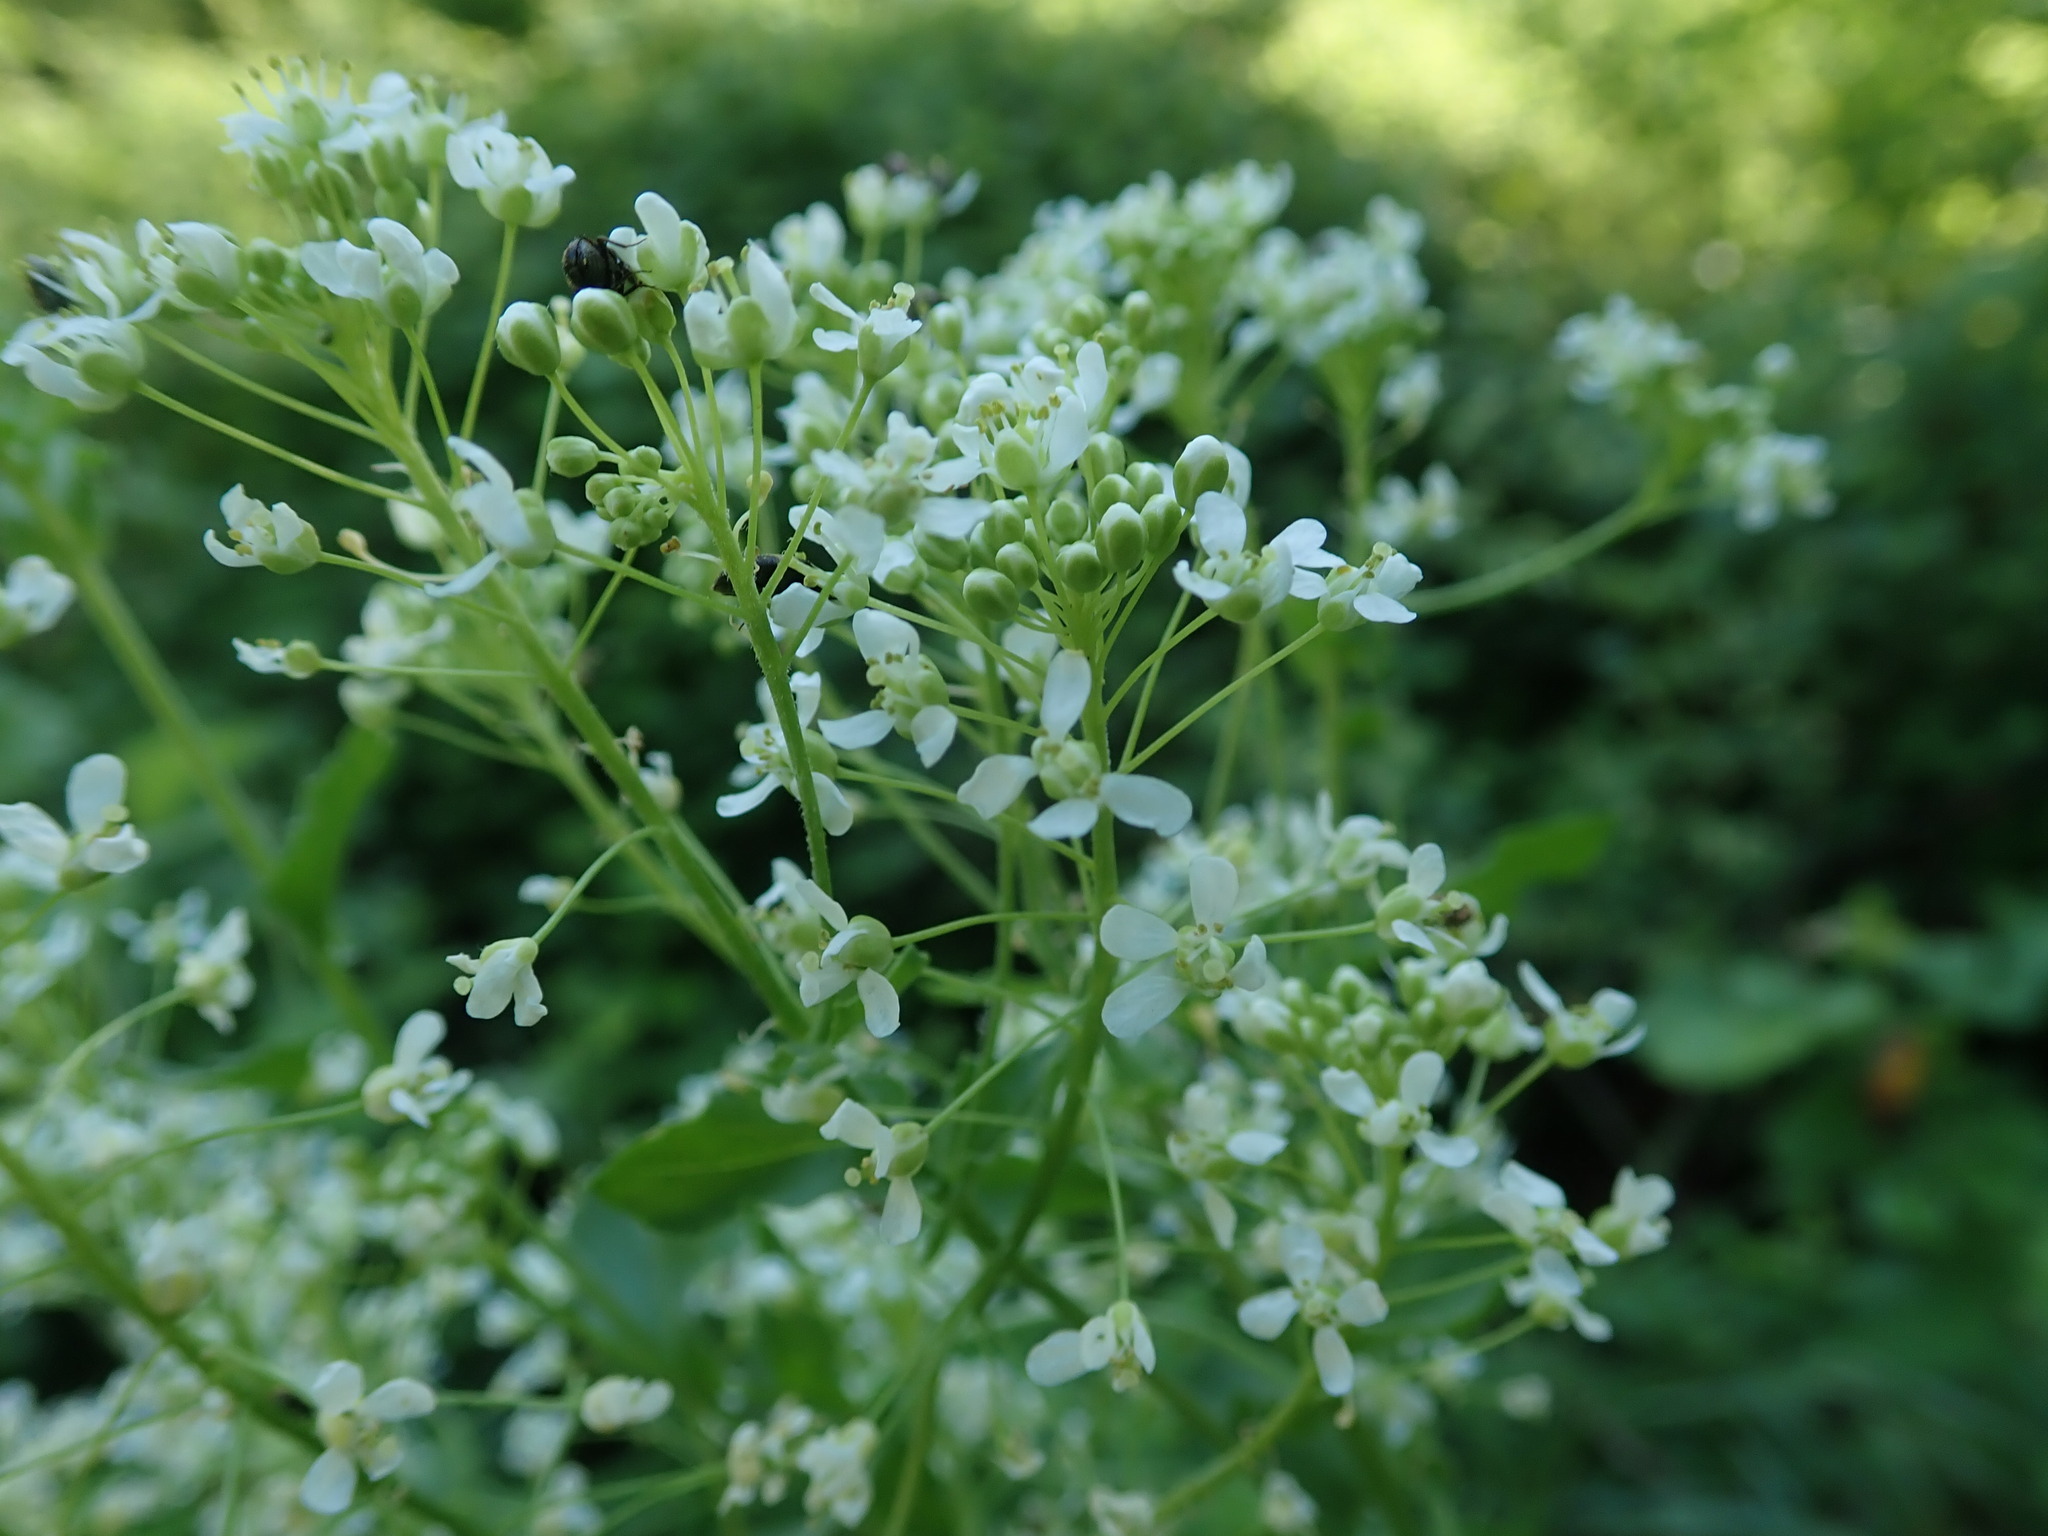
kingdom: Plantae
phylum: Tracheophyta
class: Magnoliopsida
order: Brassicales
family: Brassicaceae
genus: Lepidium
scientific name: Lepidium draba
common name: Hoary cress
